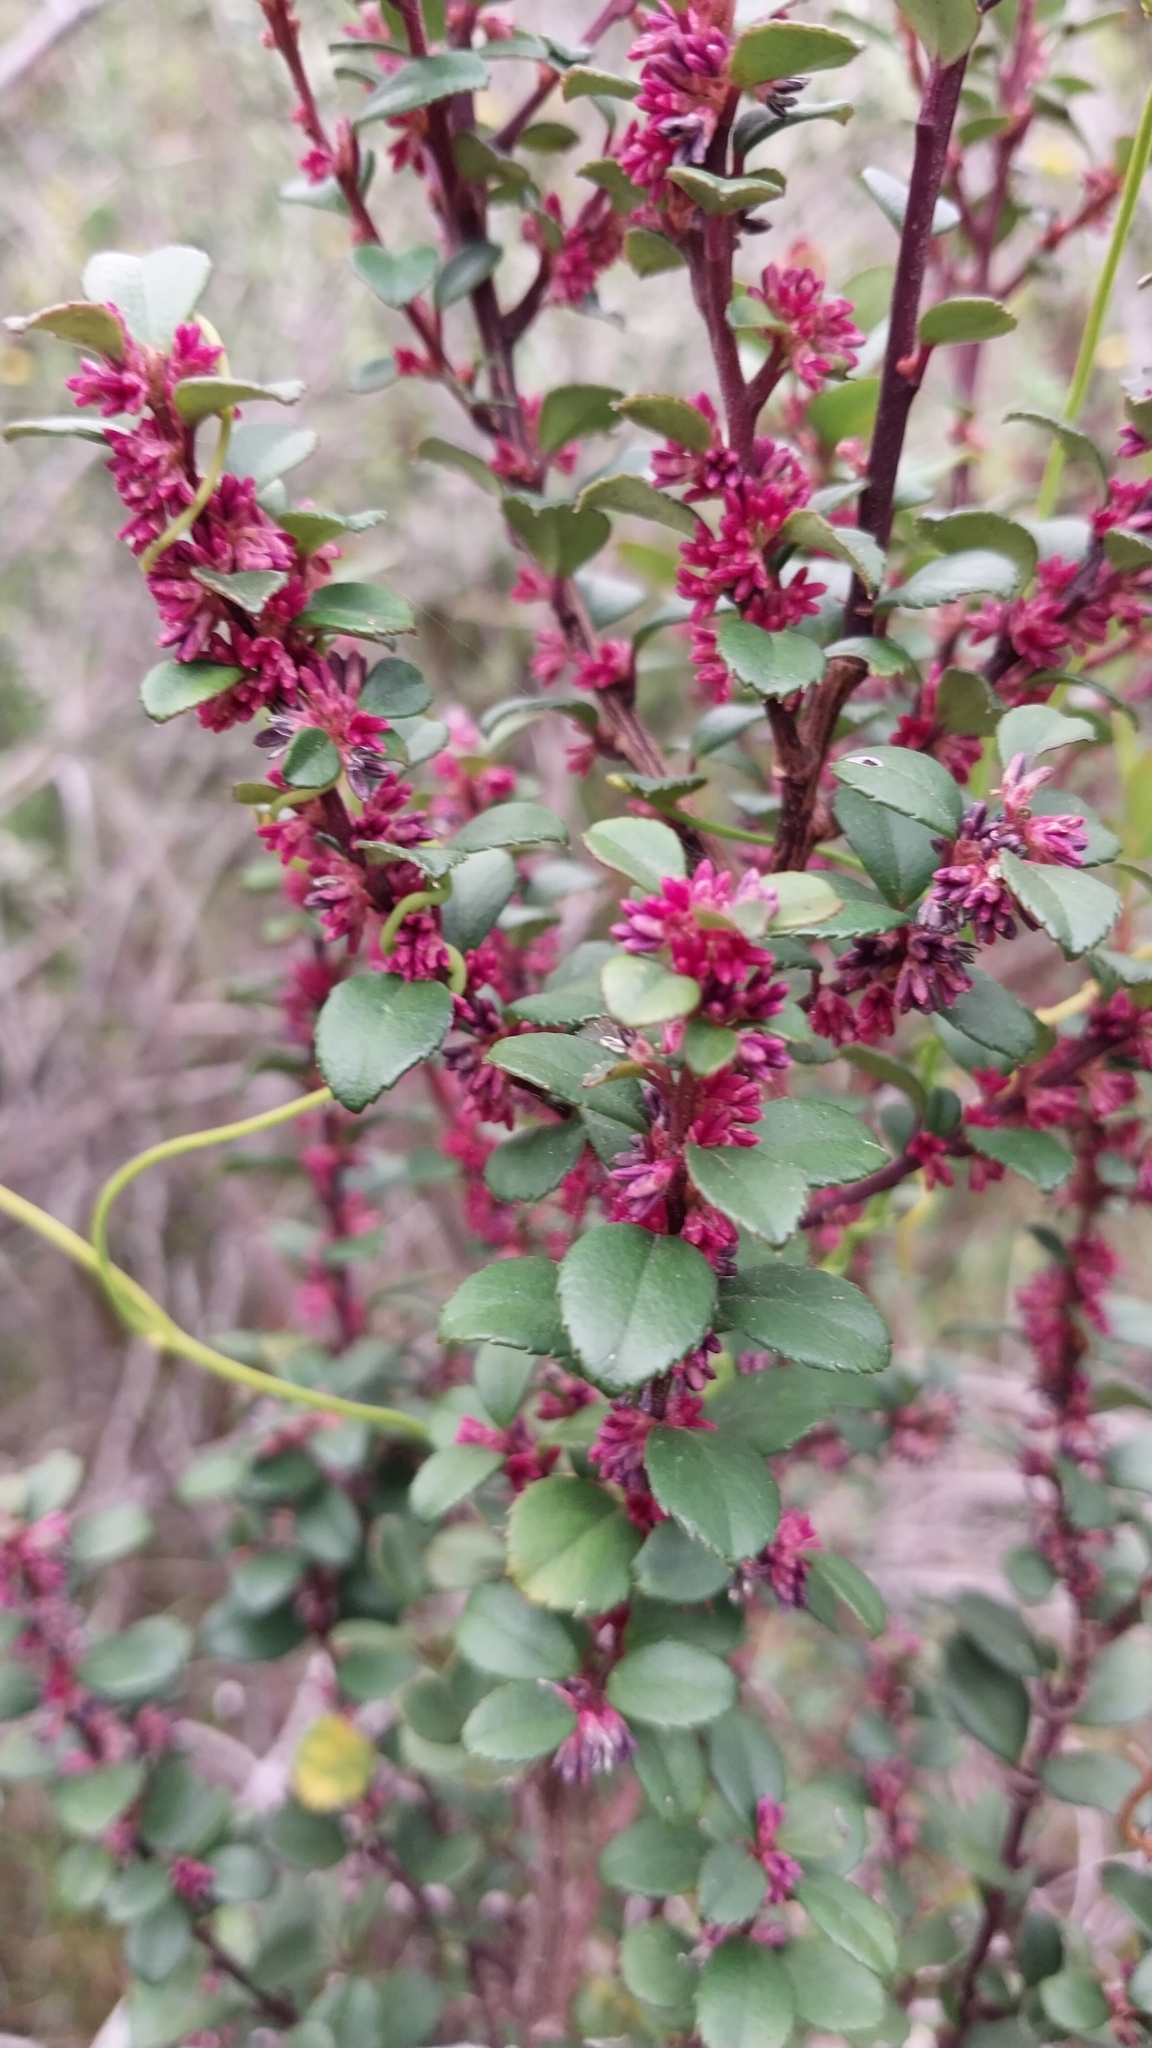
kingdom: Plantae
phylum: Tracheophyta
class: Magnoliopsida
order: Ericales
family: Primulaceae
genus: Myrsine
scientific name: Myrsine africana
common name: African-boxwood
